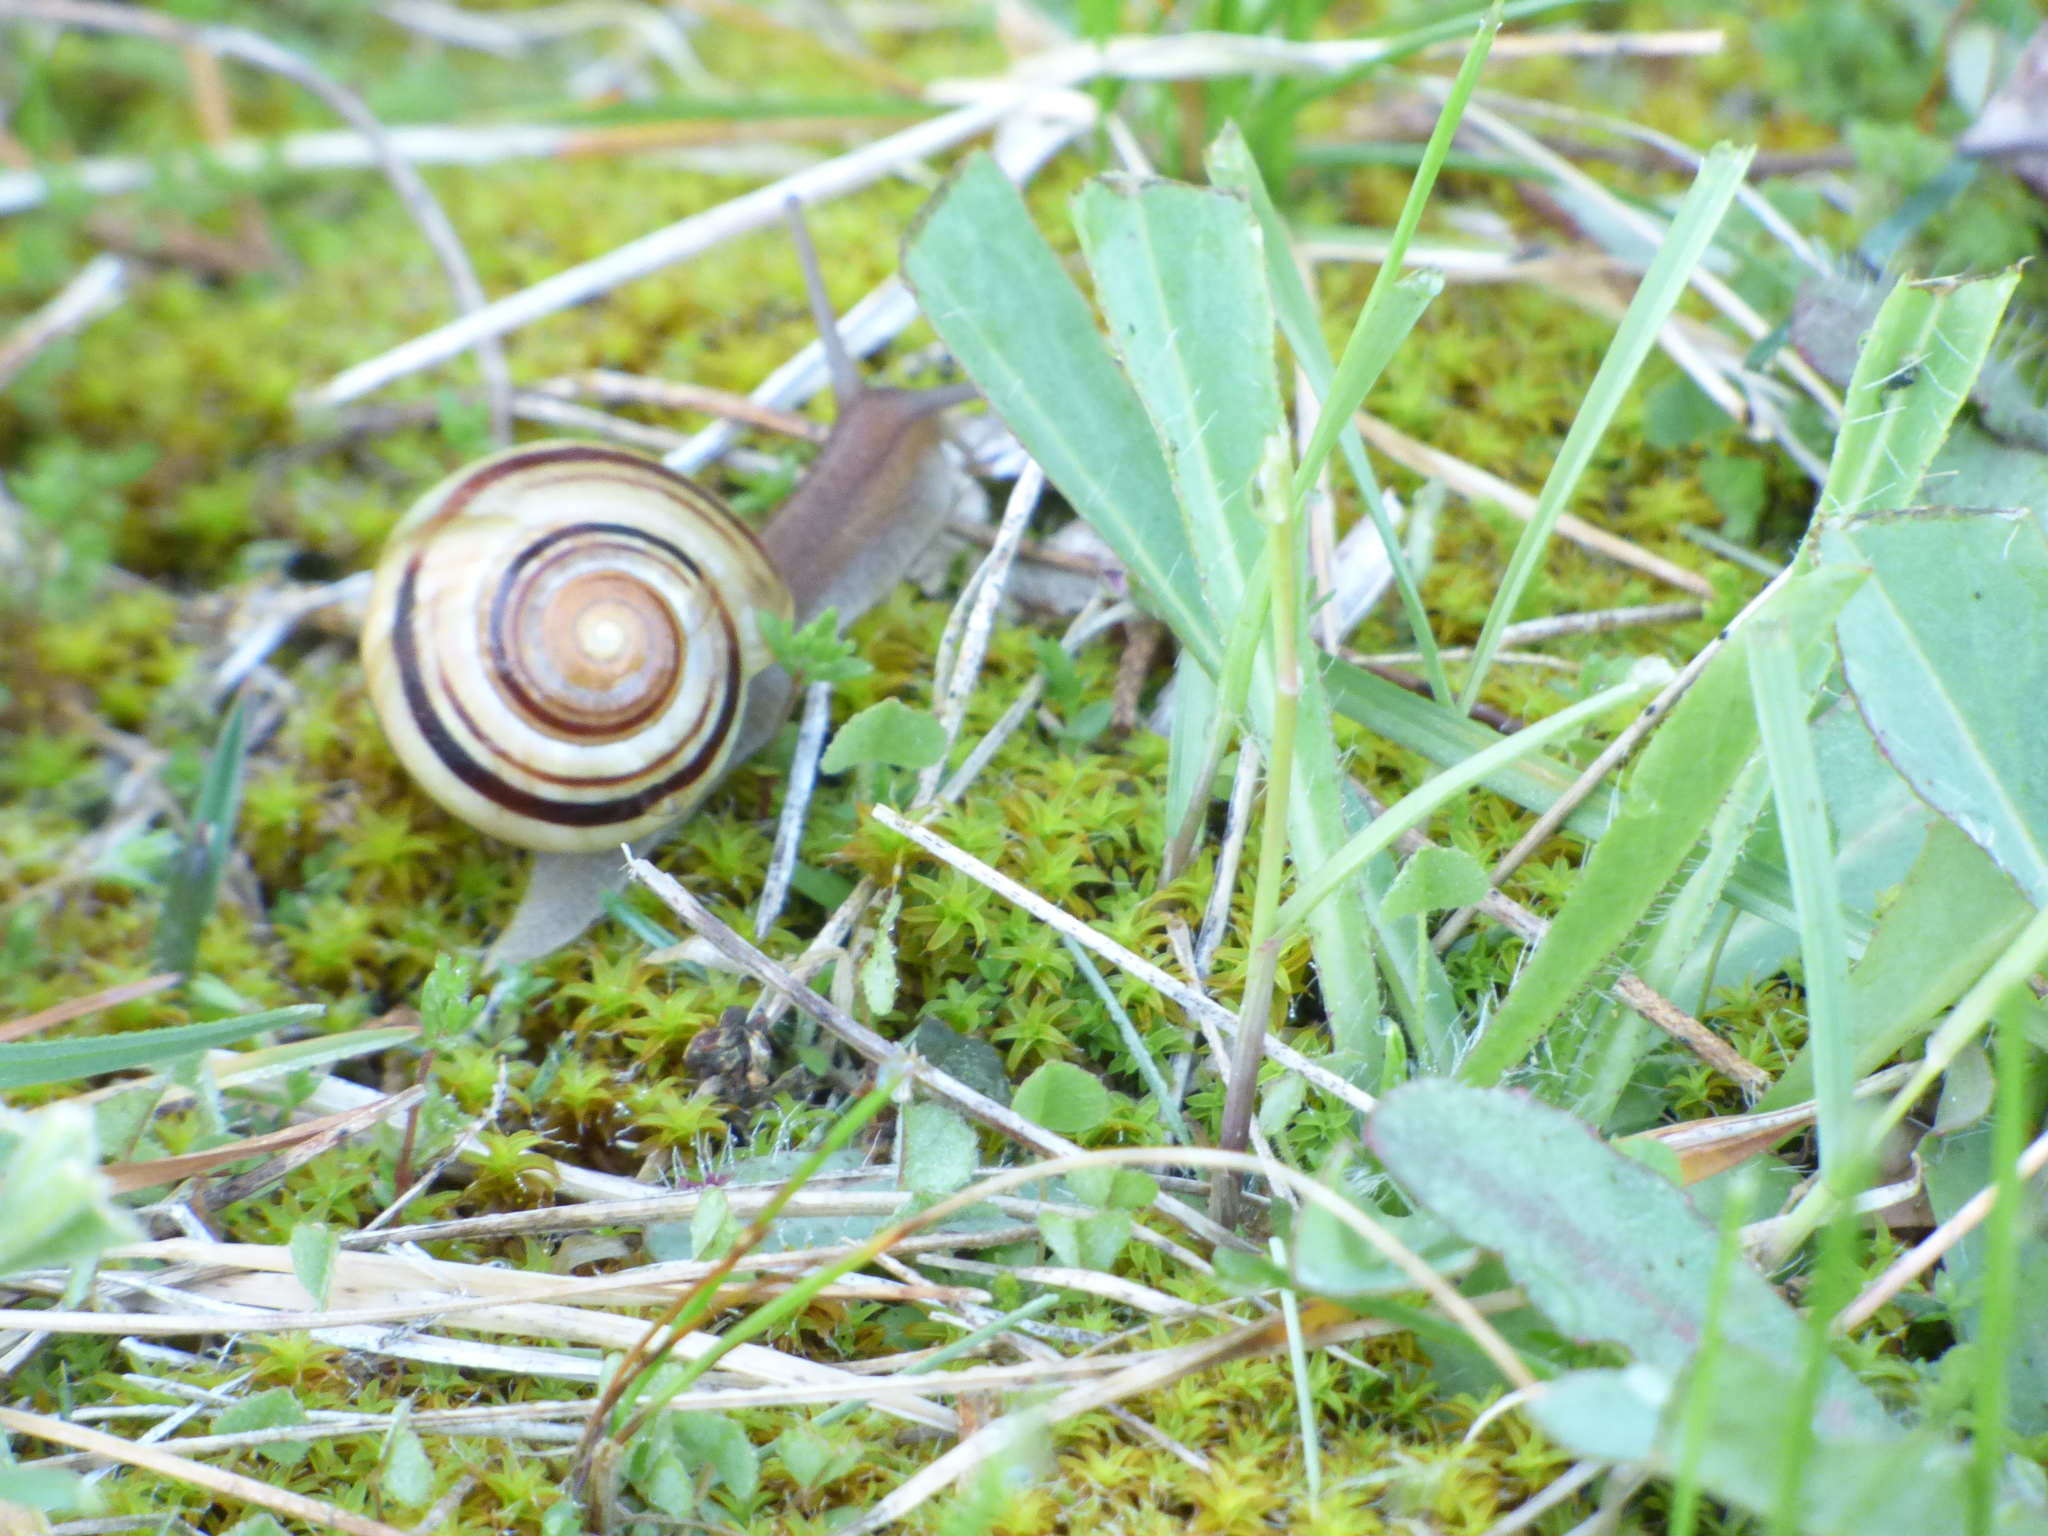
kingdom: Animalia
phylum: Mollusca
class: Gastropoda
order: Stylommatophora
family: Helicidae
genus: Cepaea
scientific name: Cepaea
